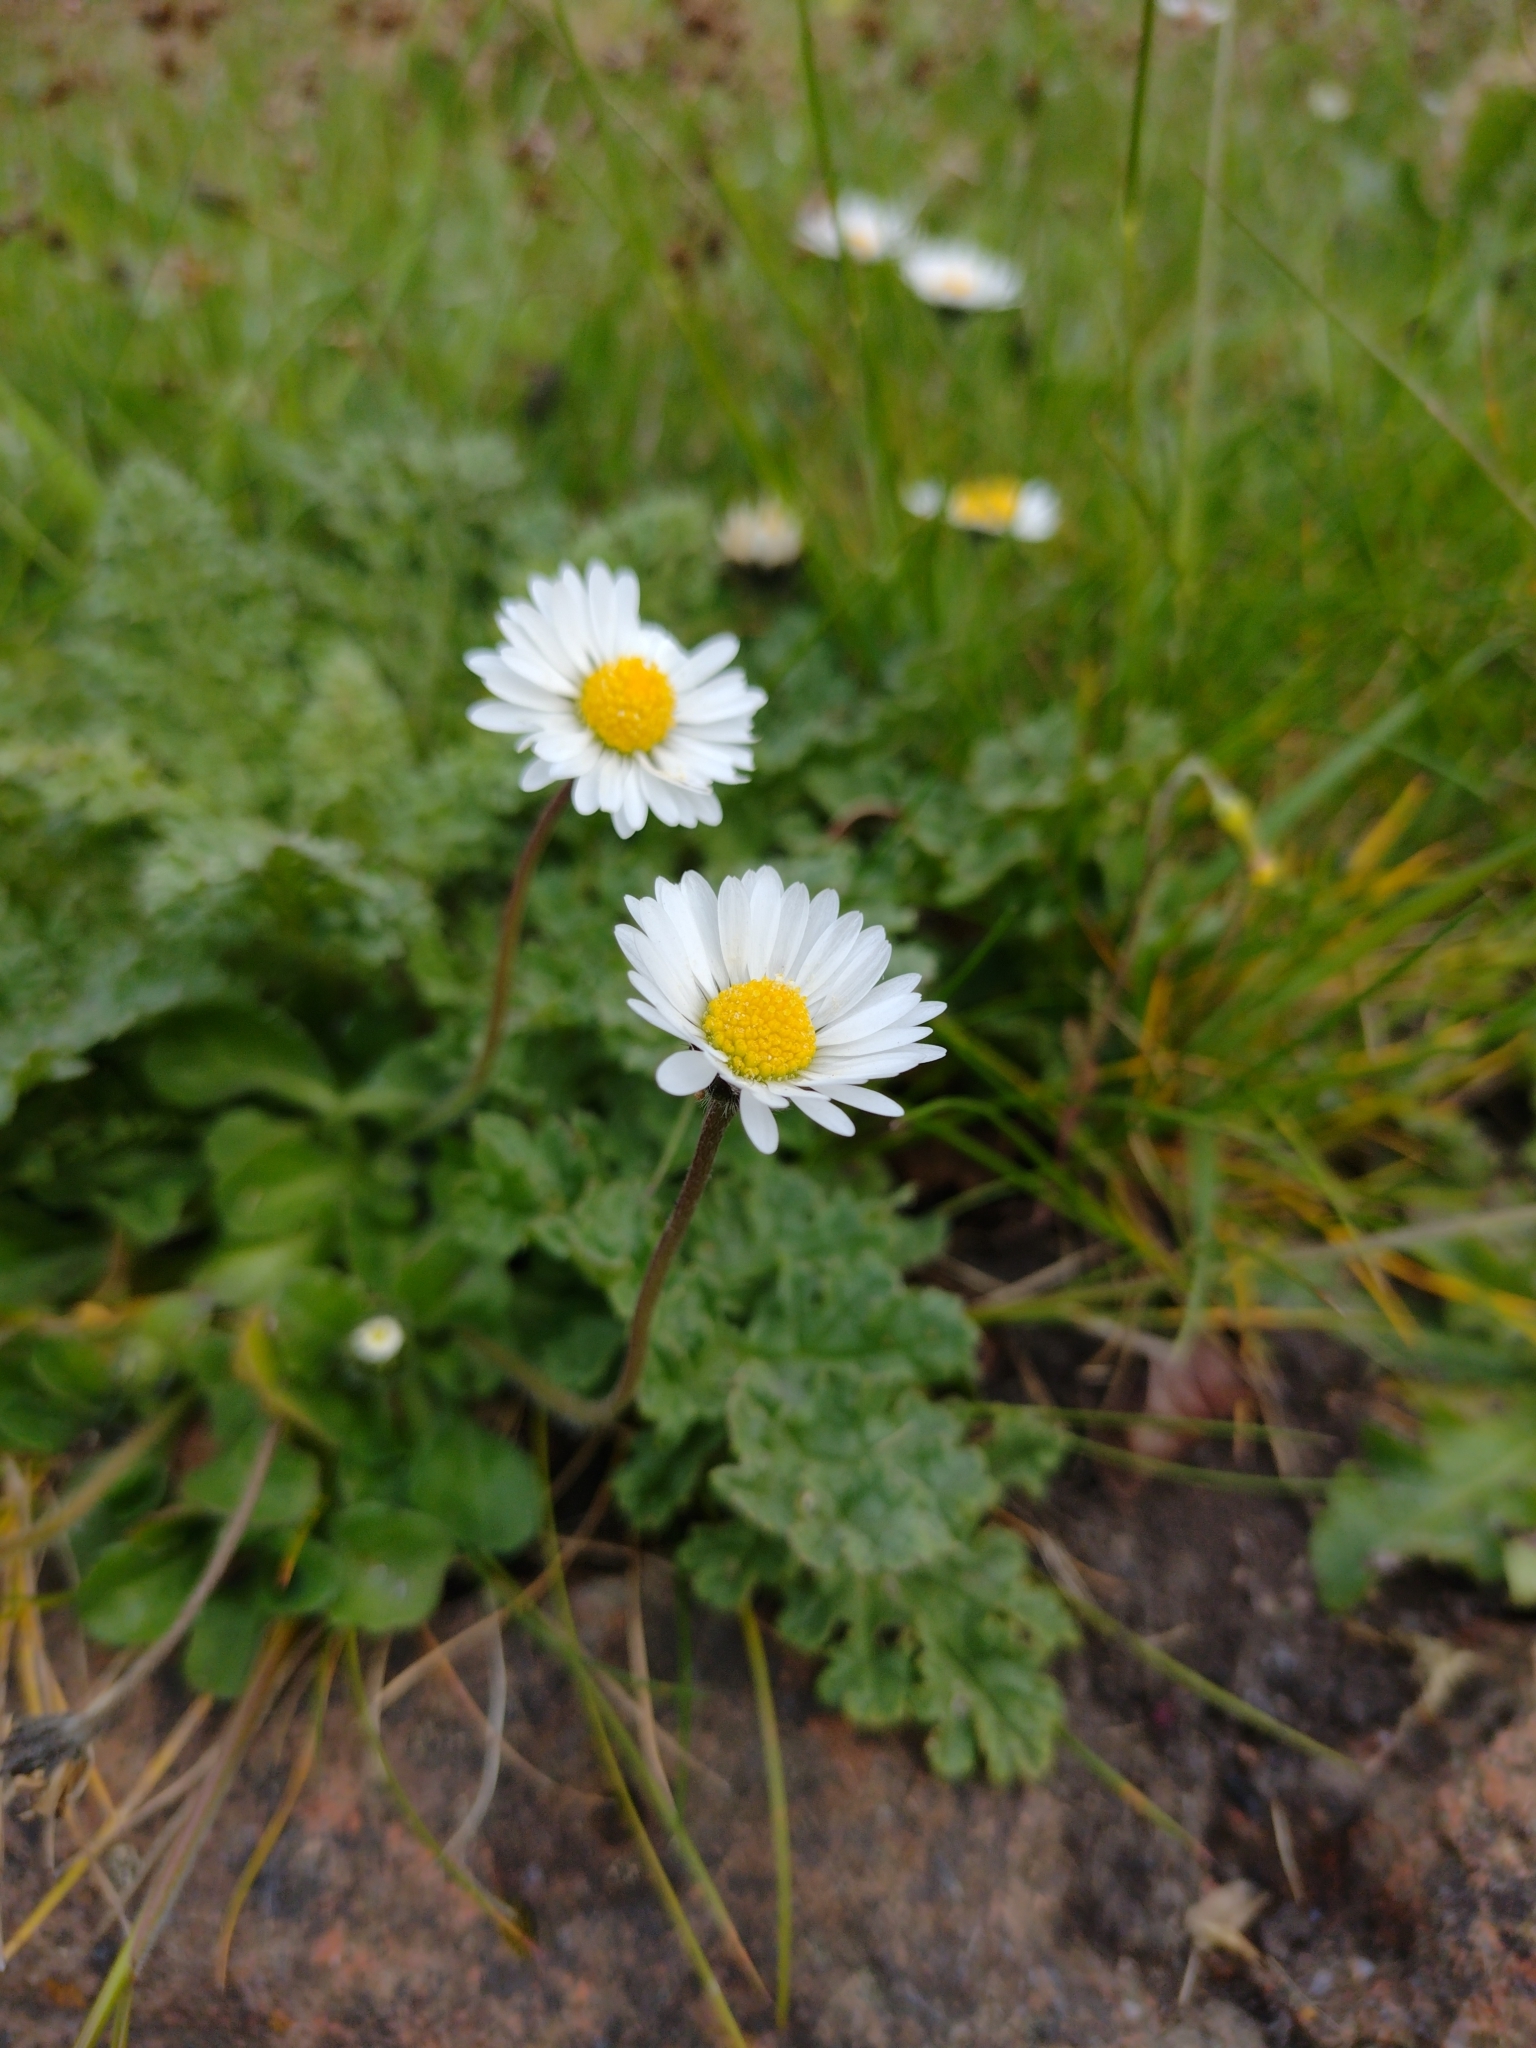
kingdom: Plantae
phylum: Tracheophyta
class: Magnoliopsida
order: Asterales
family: Asteraceae
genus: Bellis
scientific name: Bellis perennis
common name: Lawndaisy
